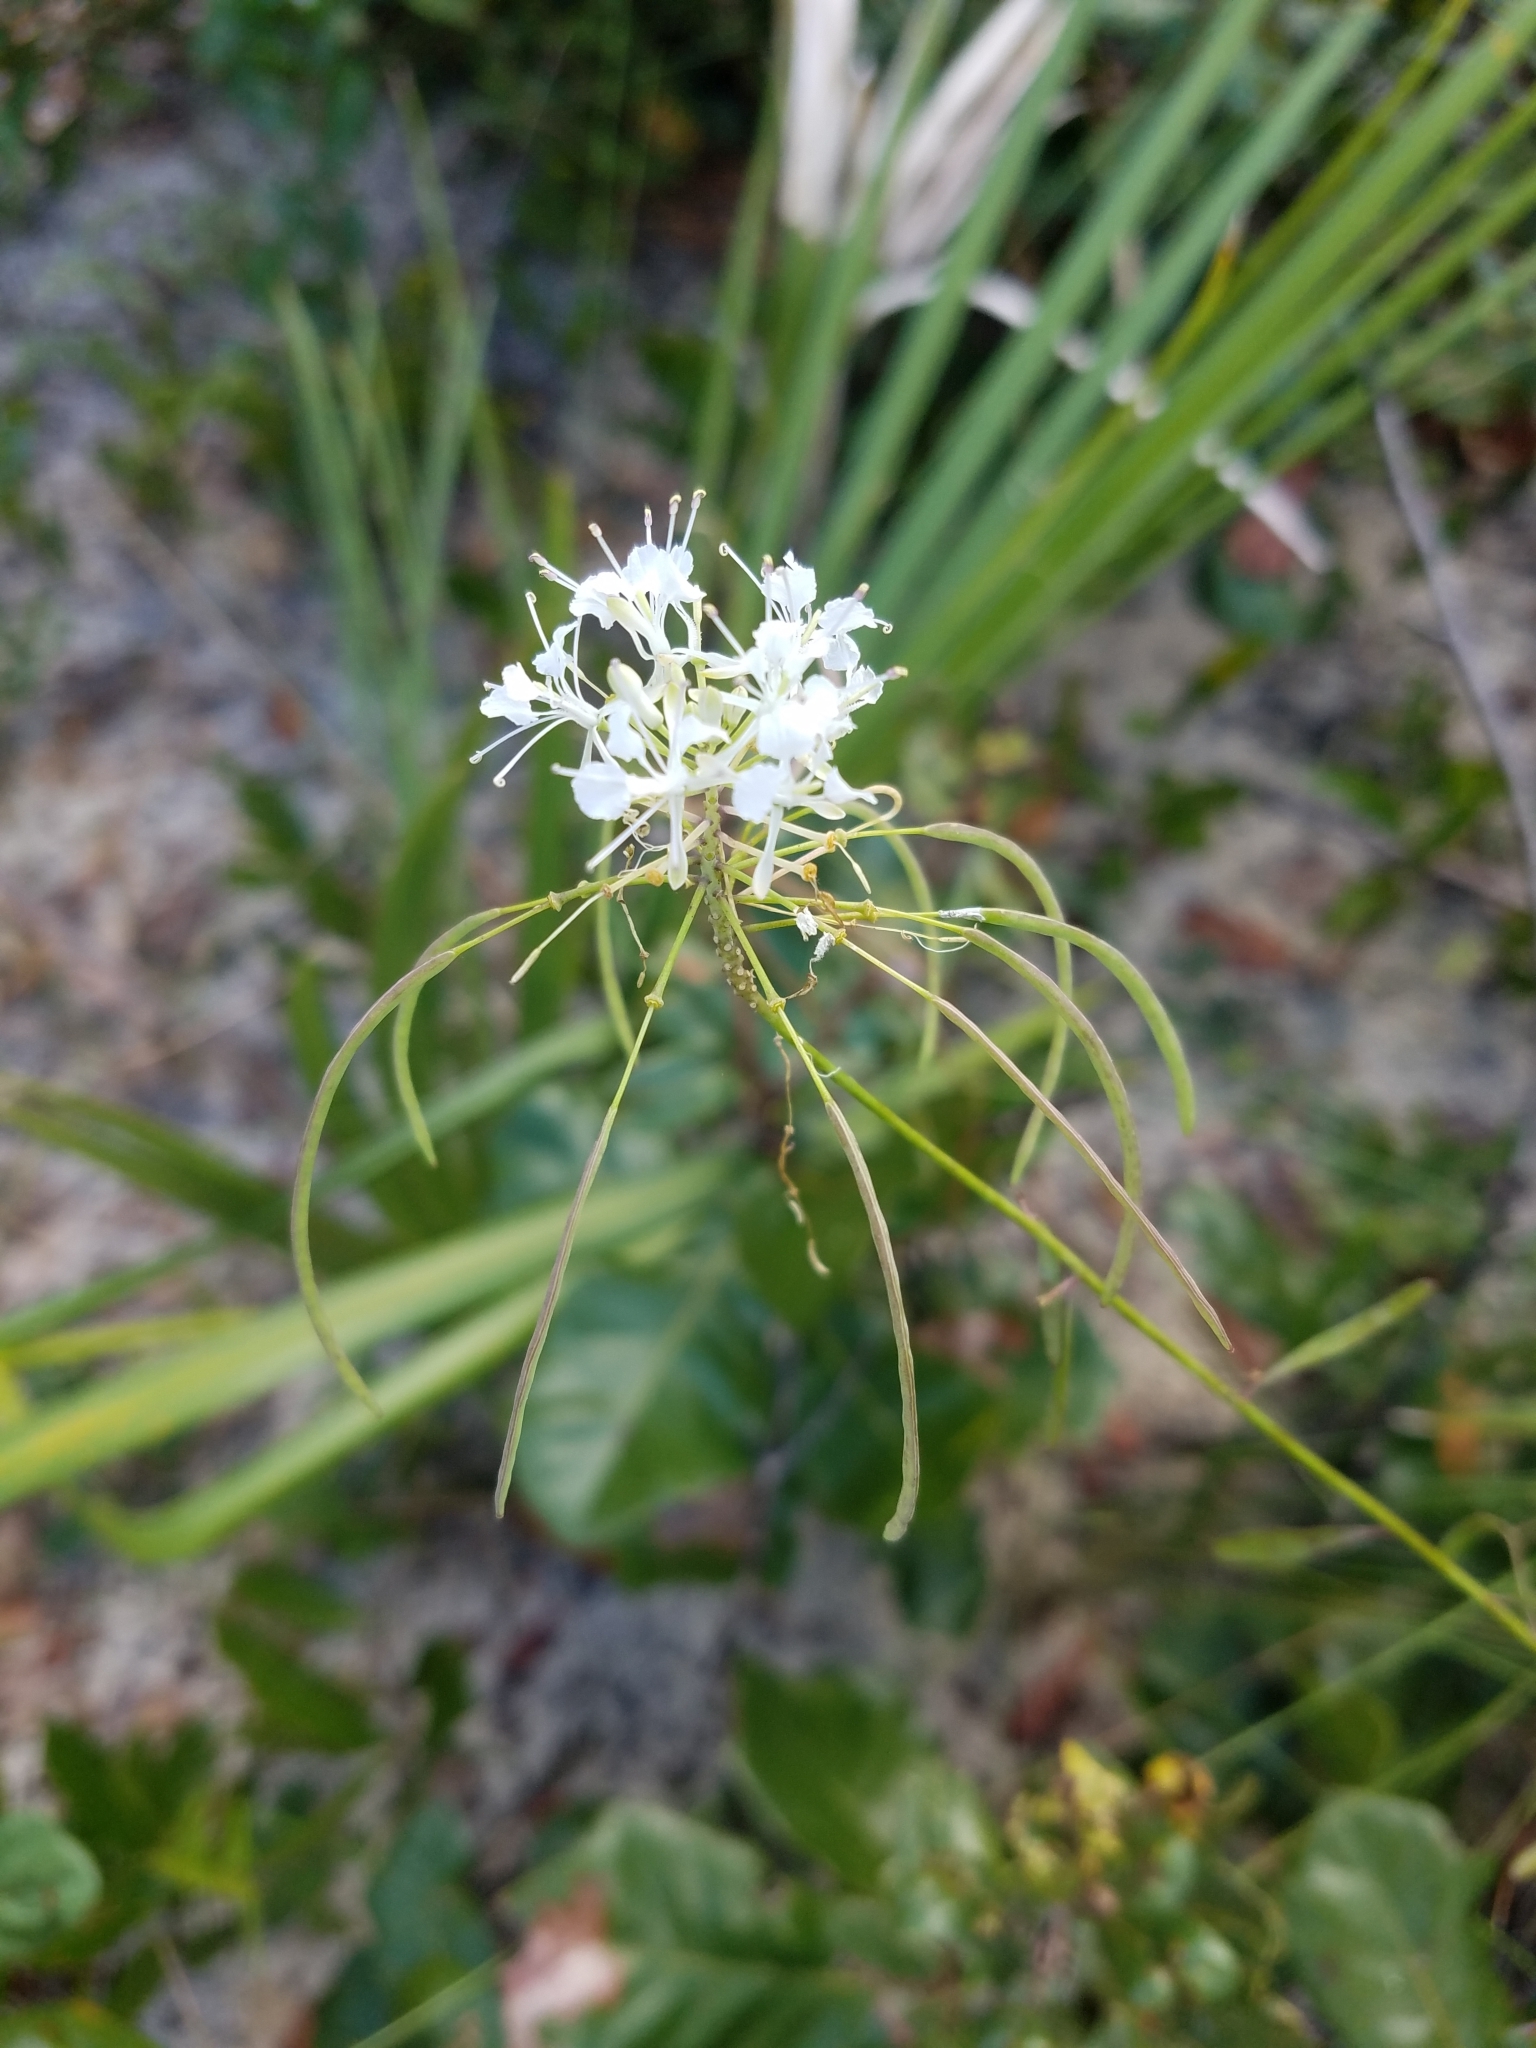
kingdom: Plantae
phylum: Tracheophyta
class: Magnoliopsida
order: Brassicales
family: Brassicaceae
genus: Warea
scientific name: Warea carteri
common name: Carter's mustard
